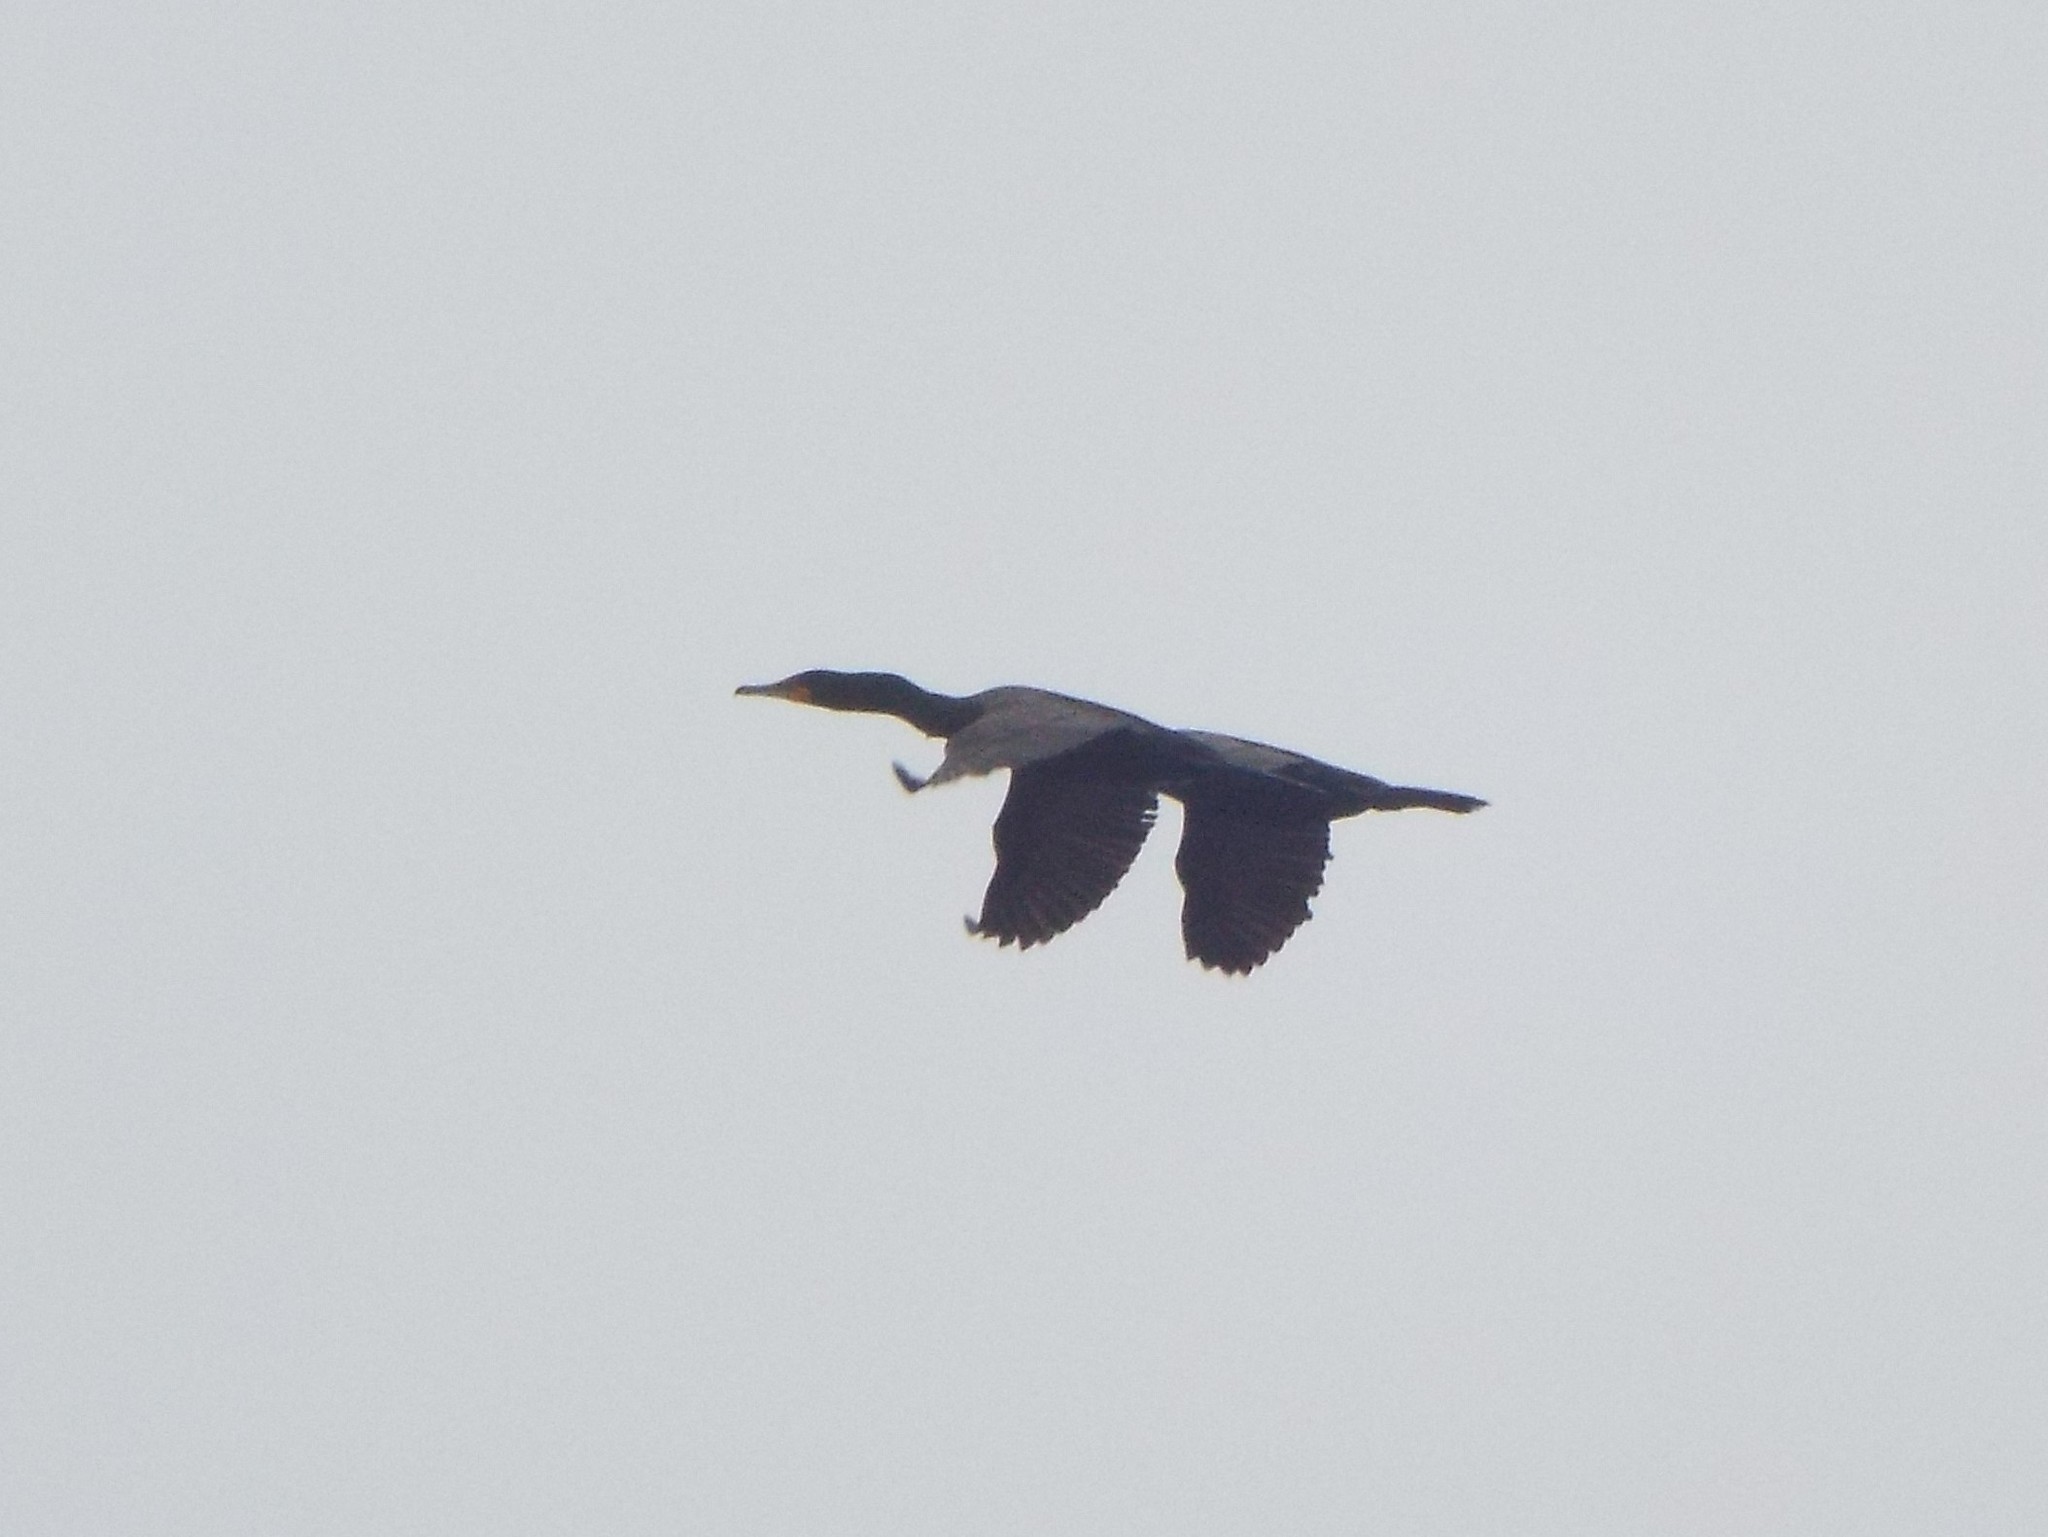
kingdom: Animalia
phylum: Chordata
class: Aves
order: Suliformes
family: Phalacrocoracidae
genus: Phalacrocorax
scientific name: Phalacrocorax auritus
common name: Double-crested cormorant
